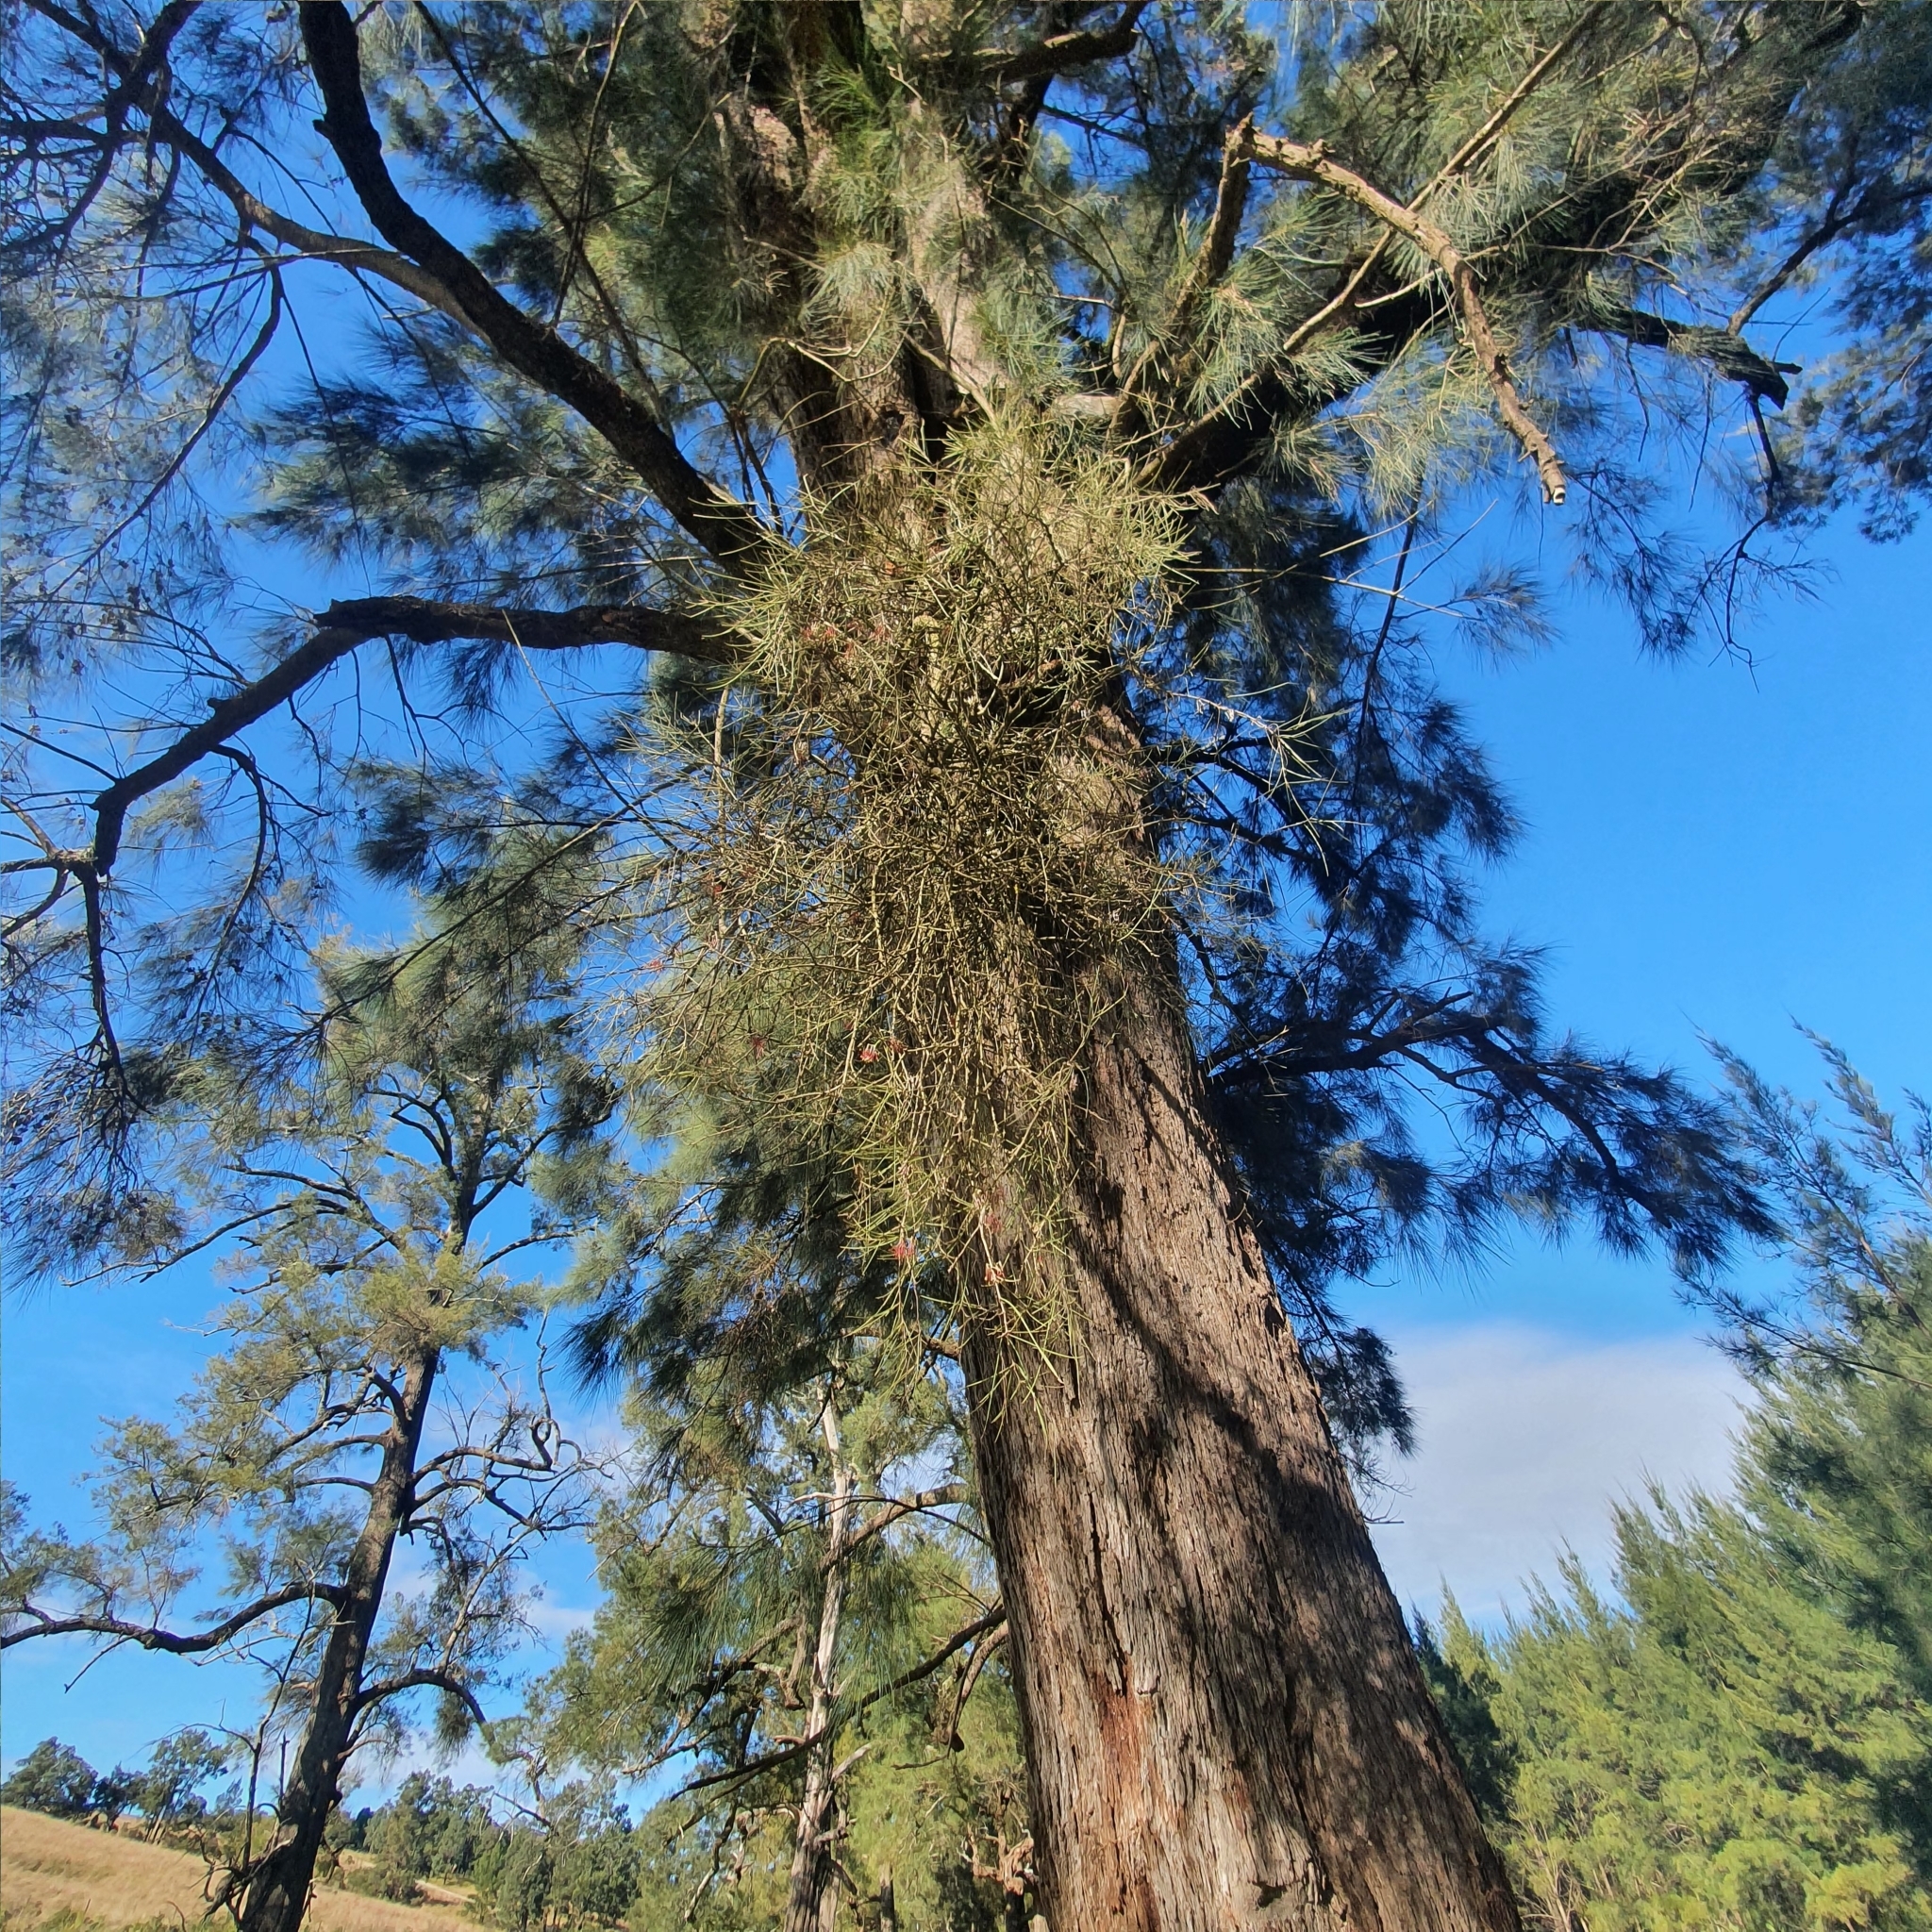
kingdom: Plantae
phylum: Tracheophyta
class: Magnoliopsida
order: Santalales
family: Loranthaceae
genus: Amyema
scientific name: Amyema cambagei
